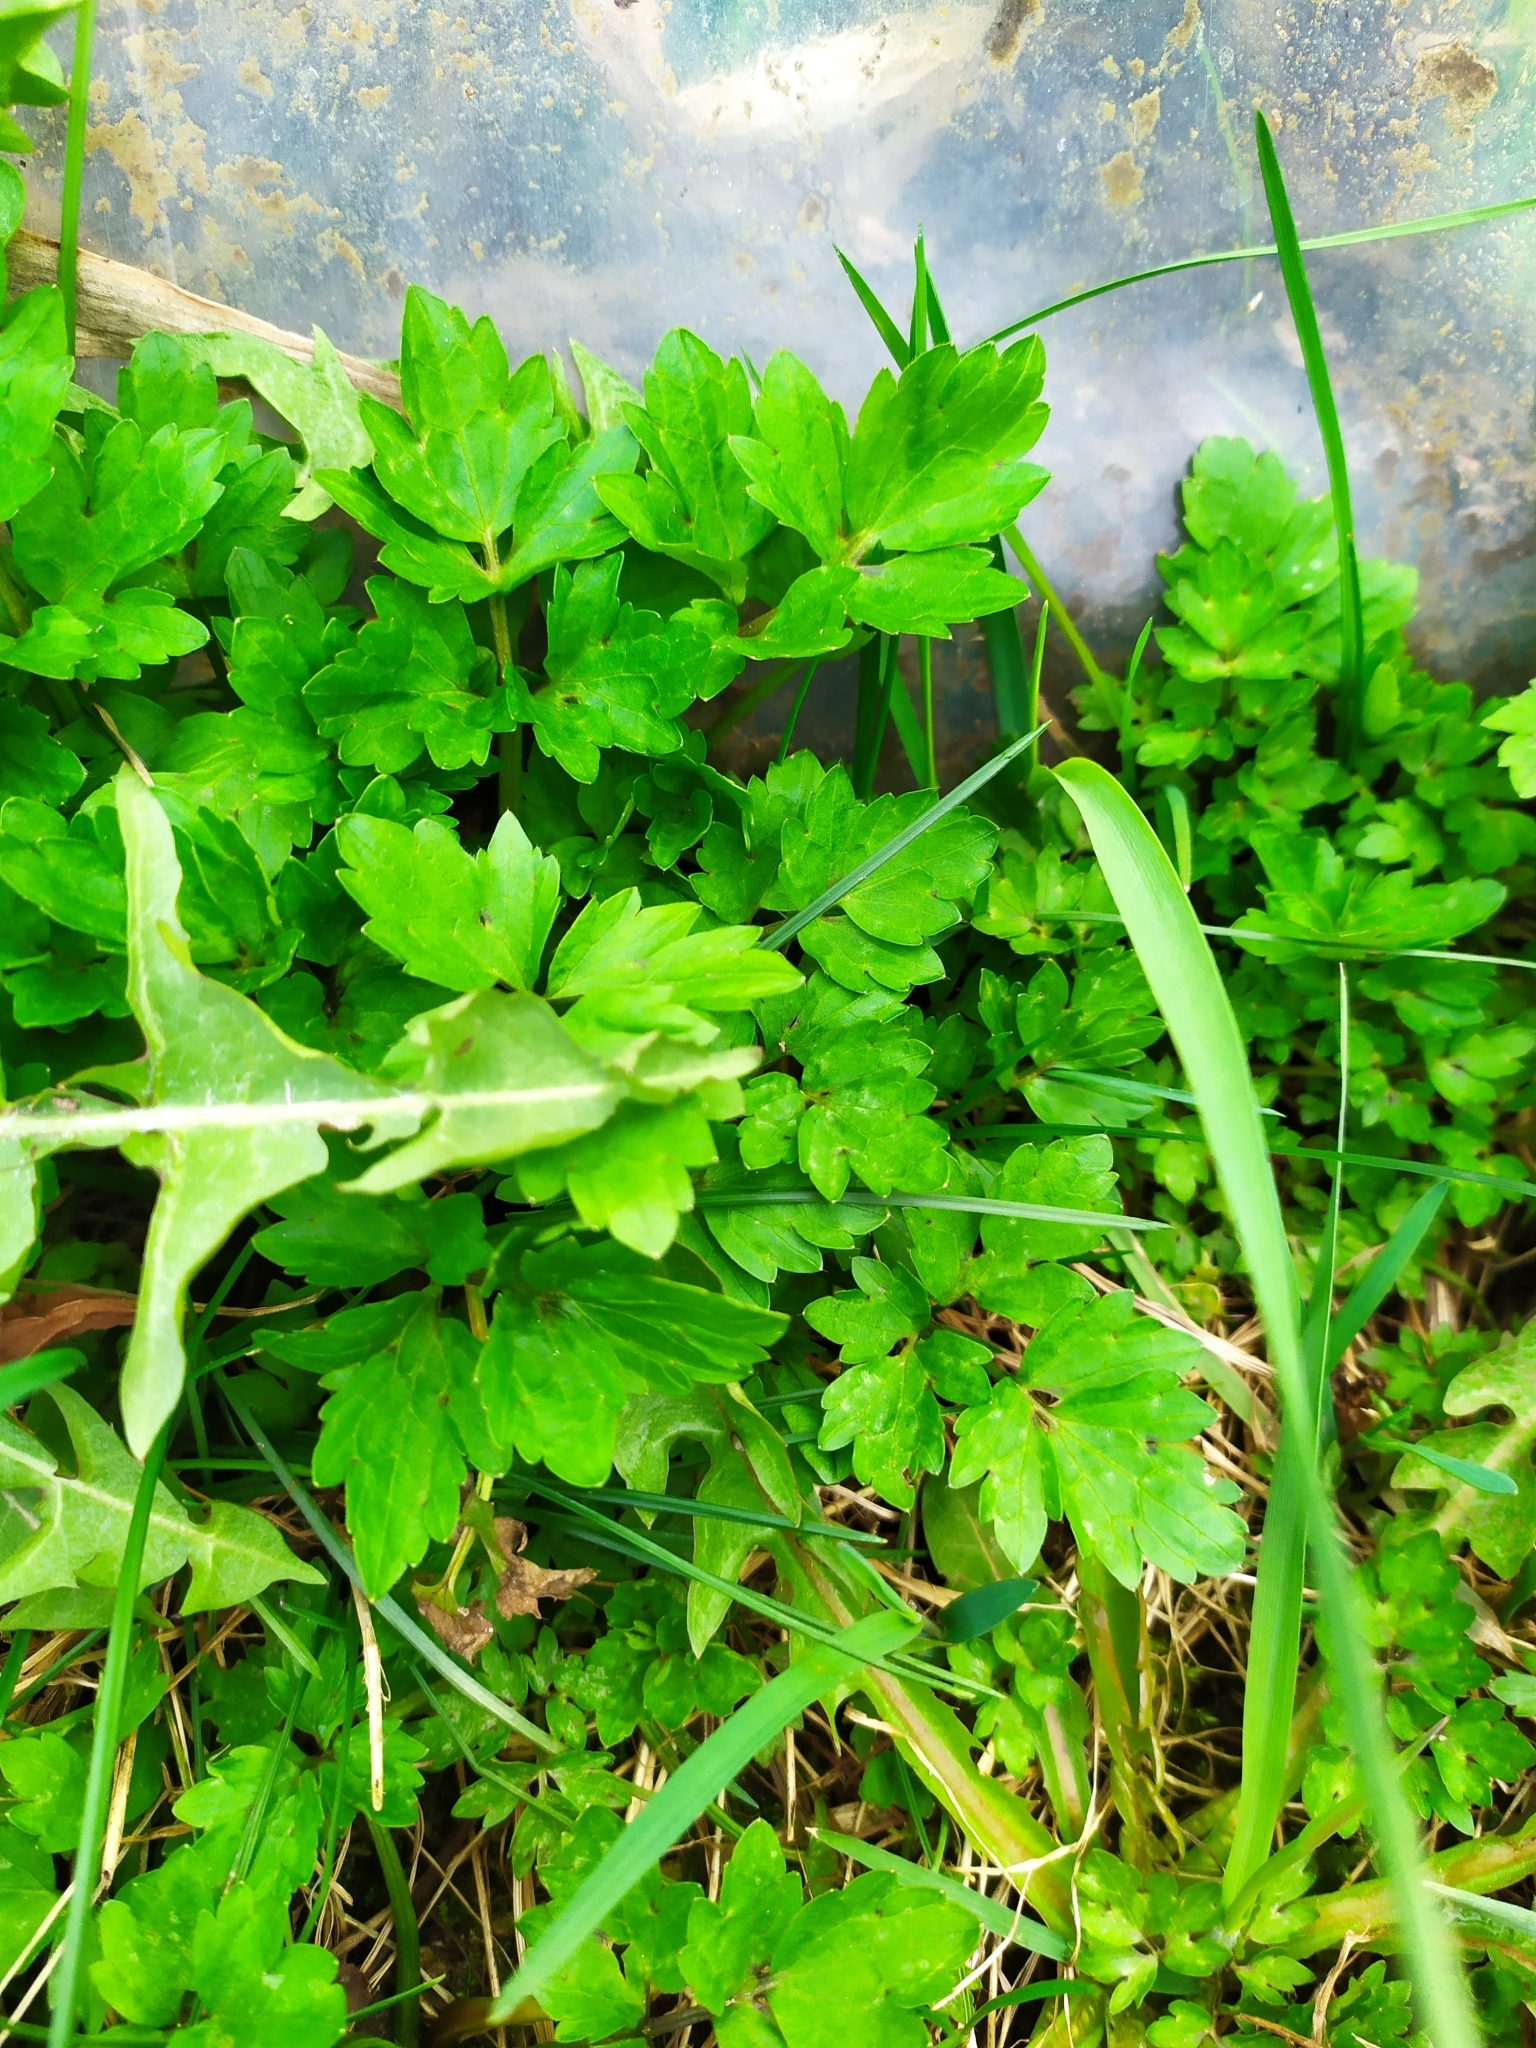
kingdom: Plantae
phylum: Tracheophyta
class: Magnoliopsida
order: Ranunculales
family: Ranunculaceae
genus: Ranunculus
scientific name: Ranunculus repens
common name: Creeping buttercup
